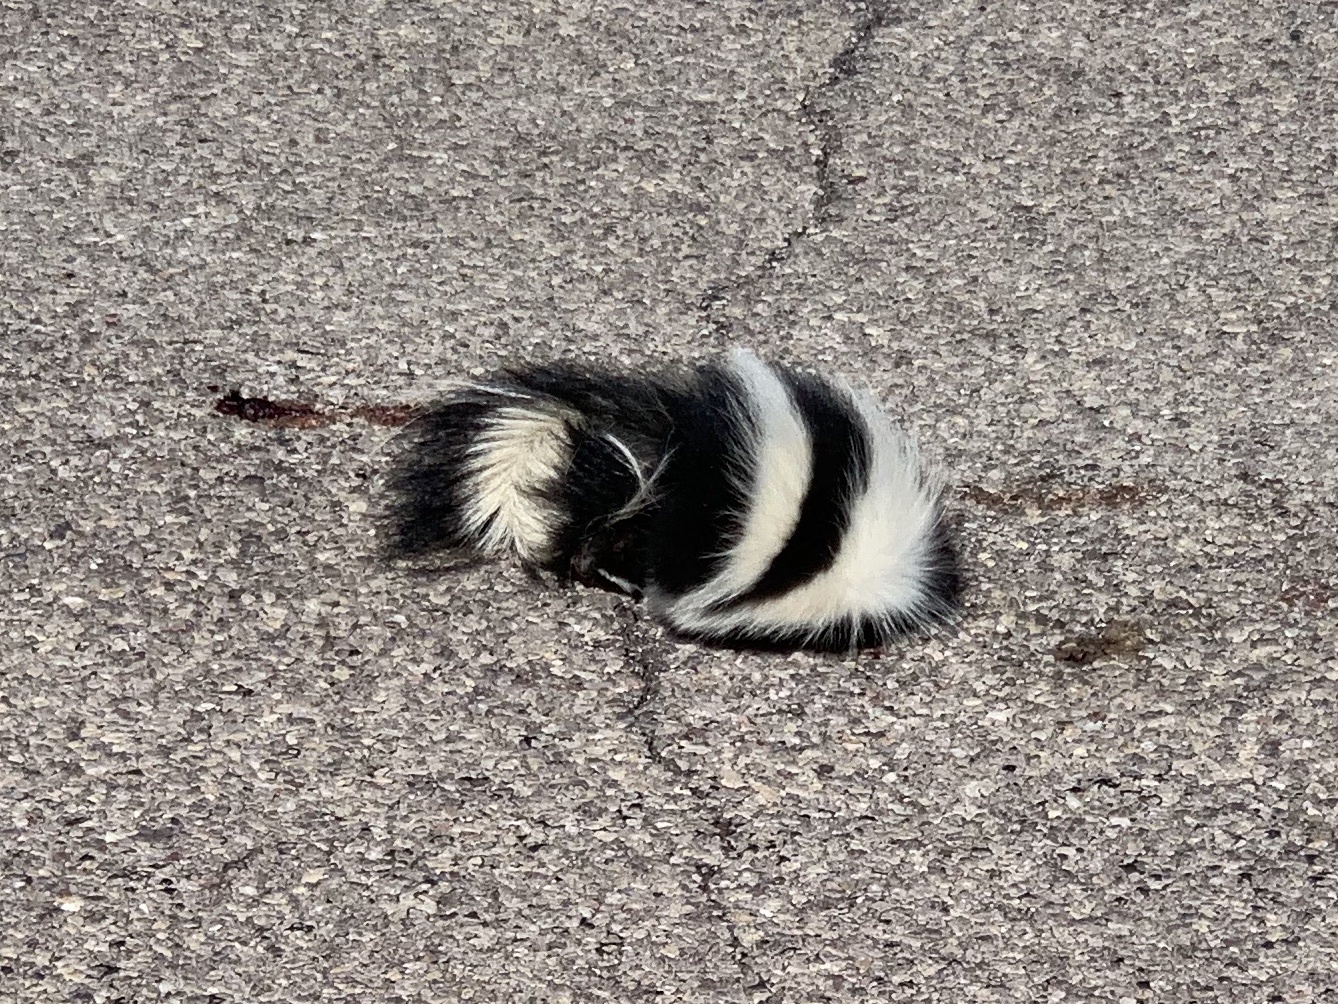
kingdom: Animalia
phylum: Chordata
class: Mammalia
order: Carnivora
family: Mephitidae
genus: Mephitis
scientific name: Mephitis mephitis
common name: Striped skunk
